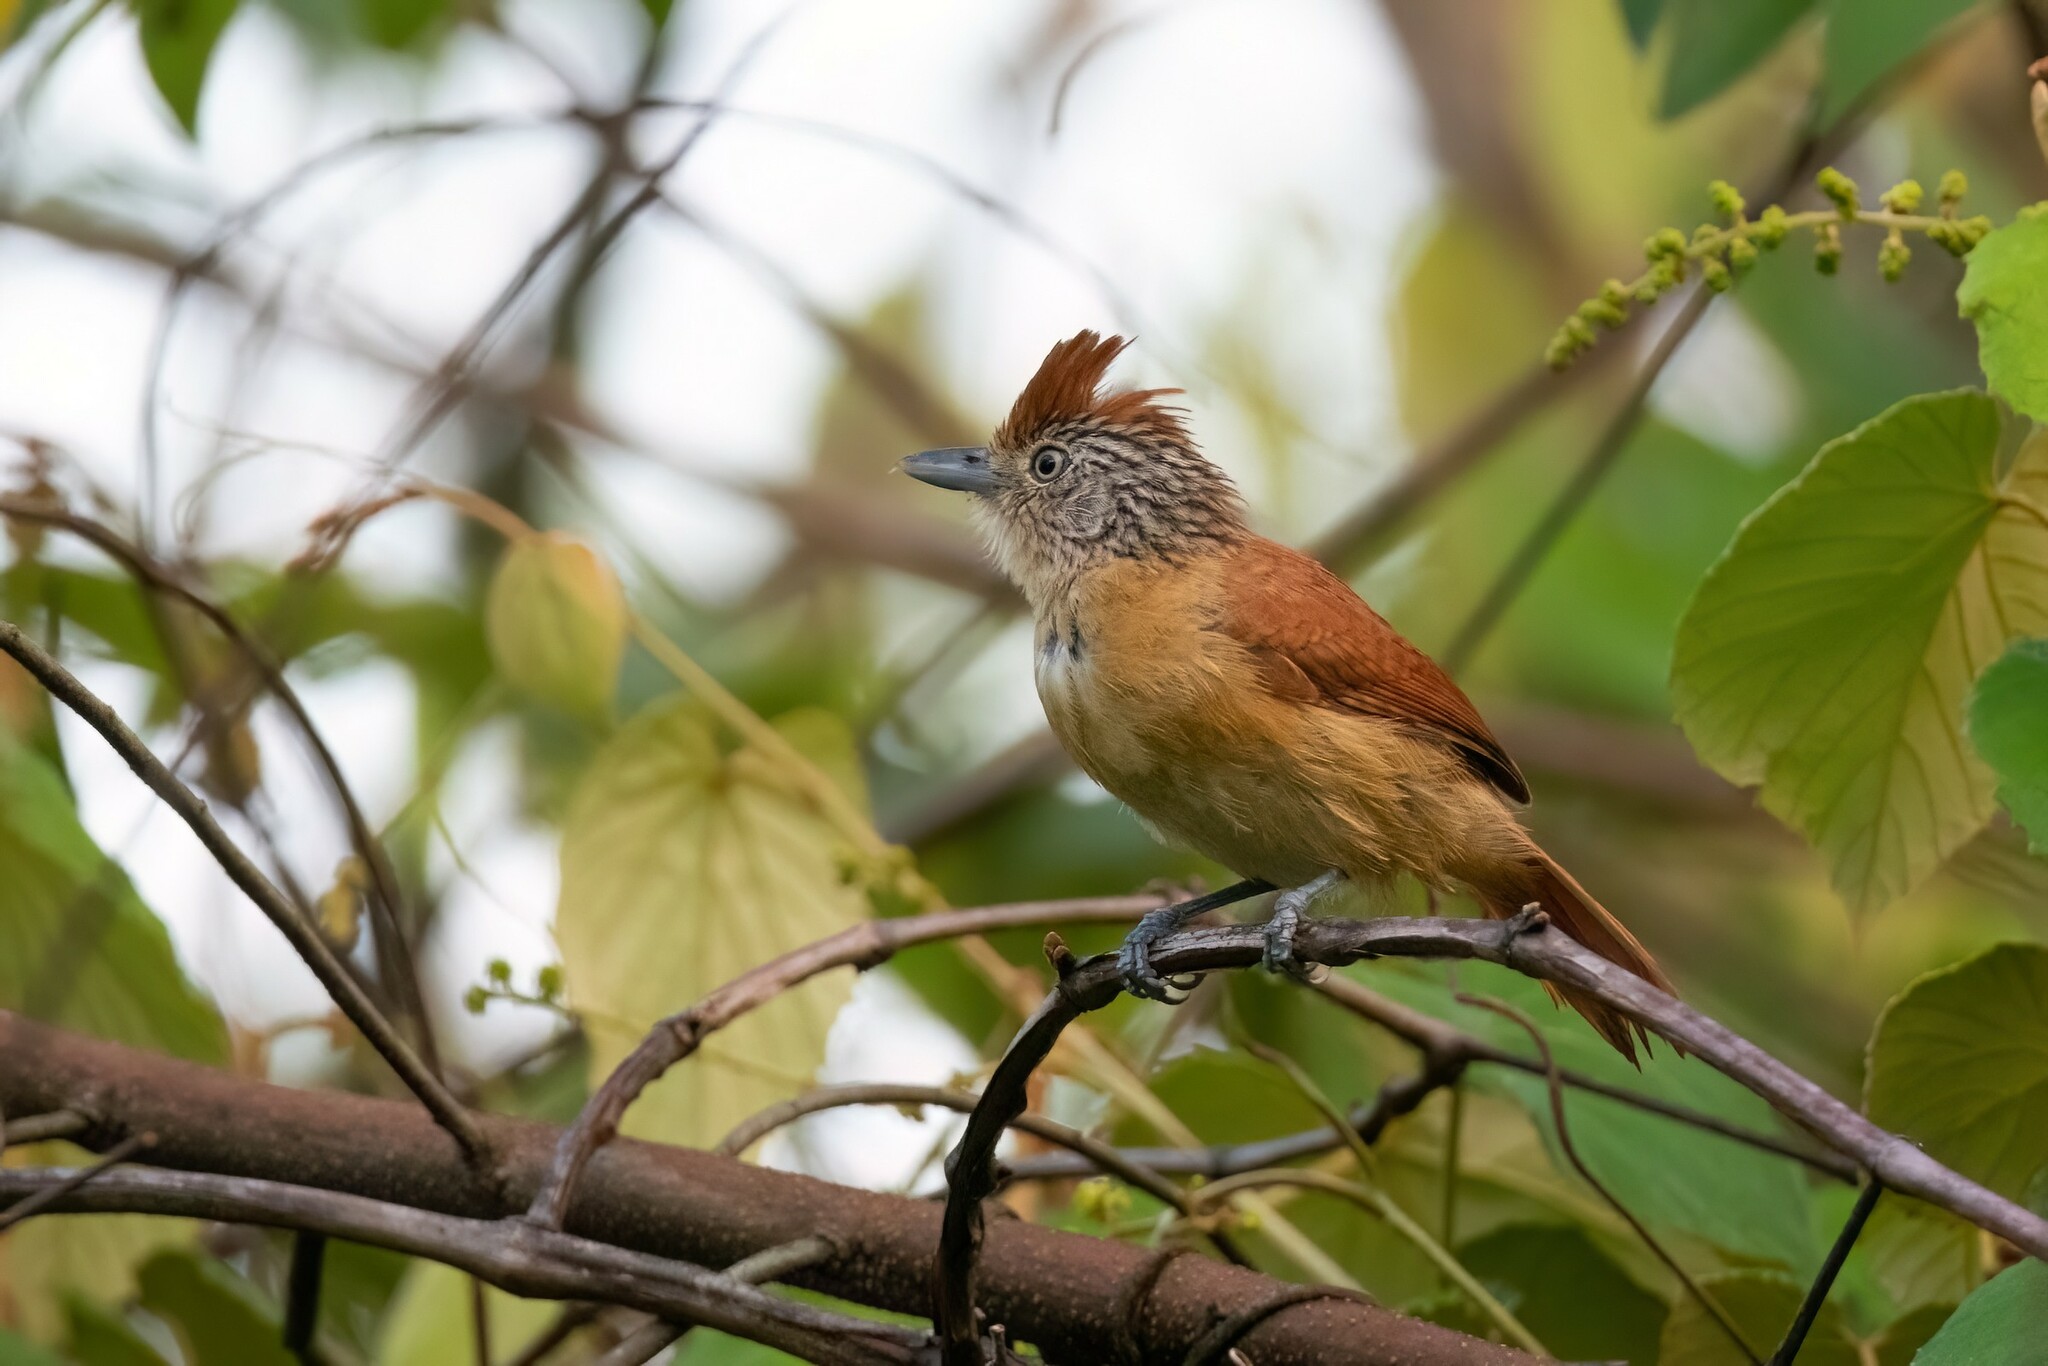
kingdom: Animalia
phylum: Chordata
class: Aves
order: Passeriformes
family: Thamnophilidae
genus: Thamnophilus
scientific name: Thamnophilus doliatus
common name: Barred antshrike
